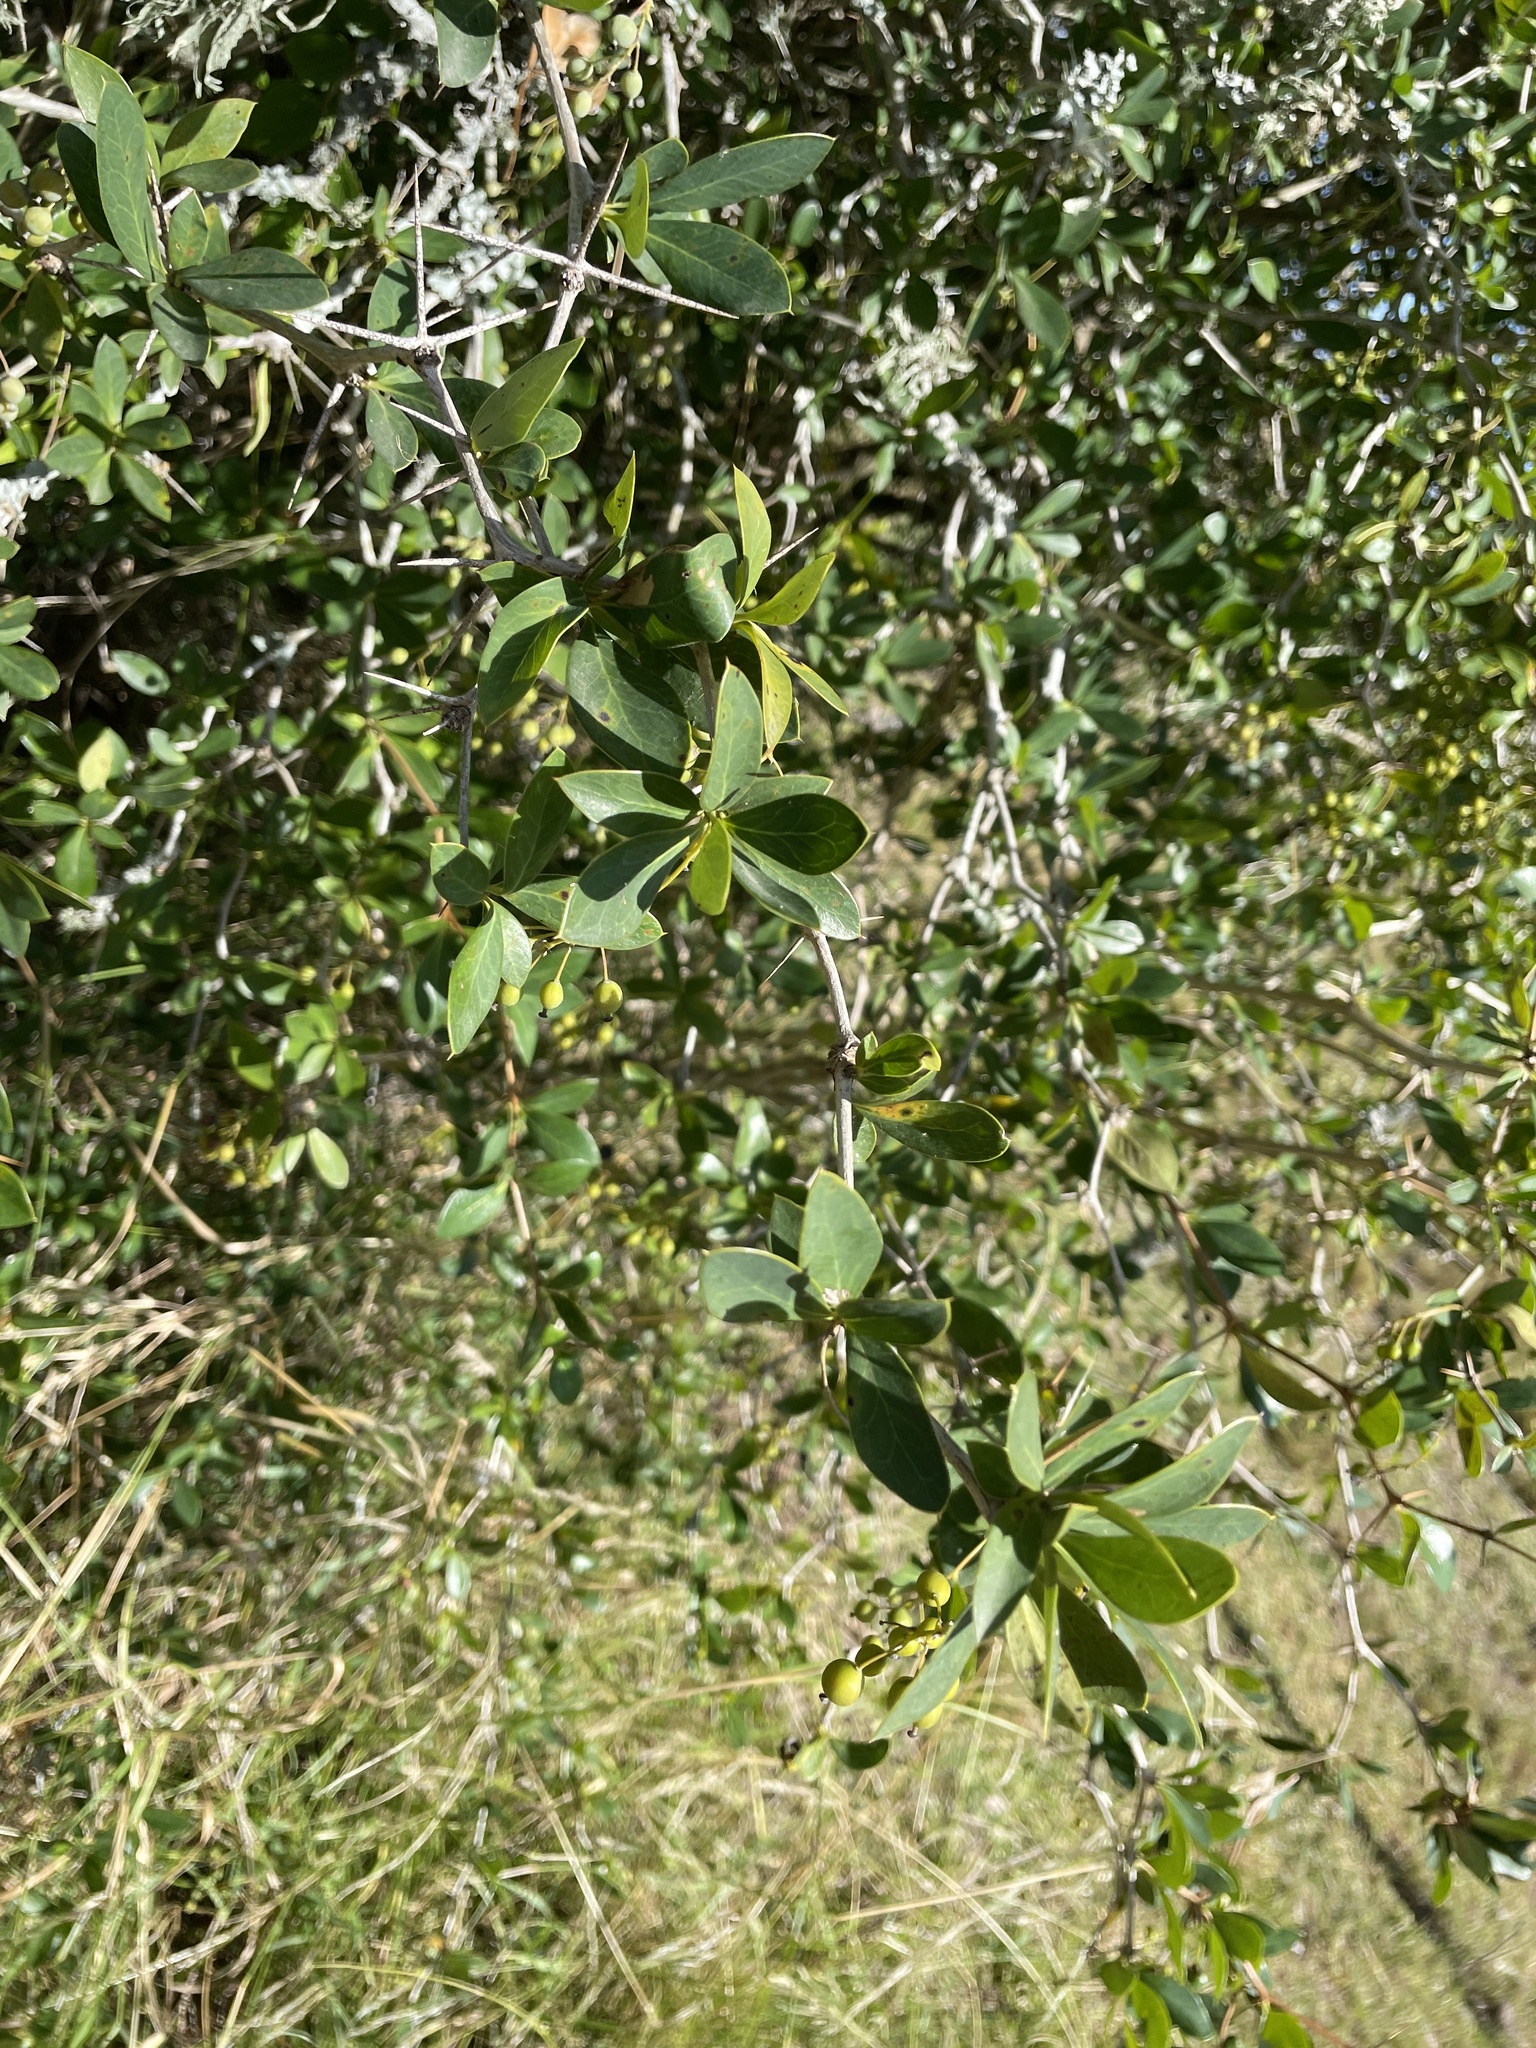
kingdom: Plantae
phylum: Tracheophyta
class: Magnoliopsida
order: Ranunculales
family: Berberidaceae
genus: Berberis
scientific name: Berberis laurina
